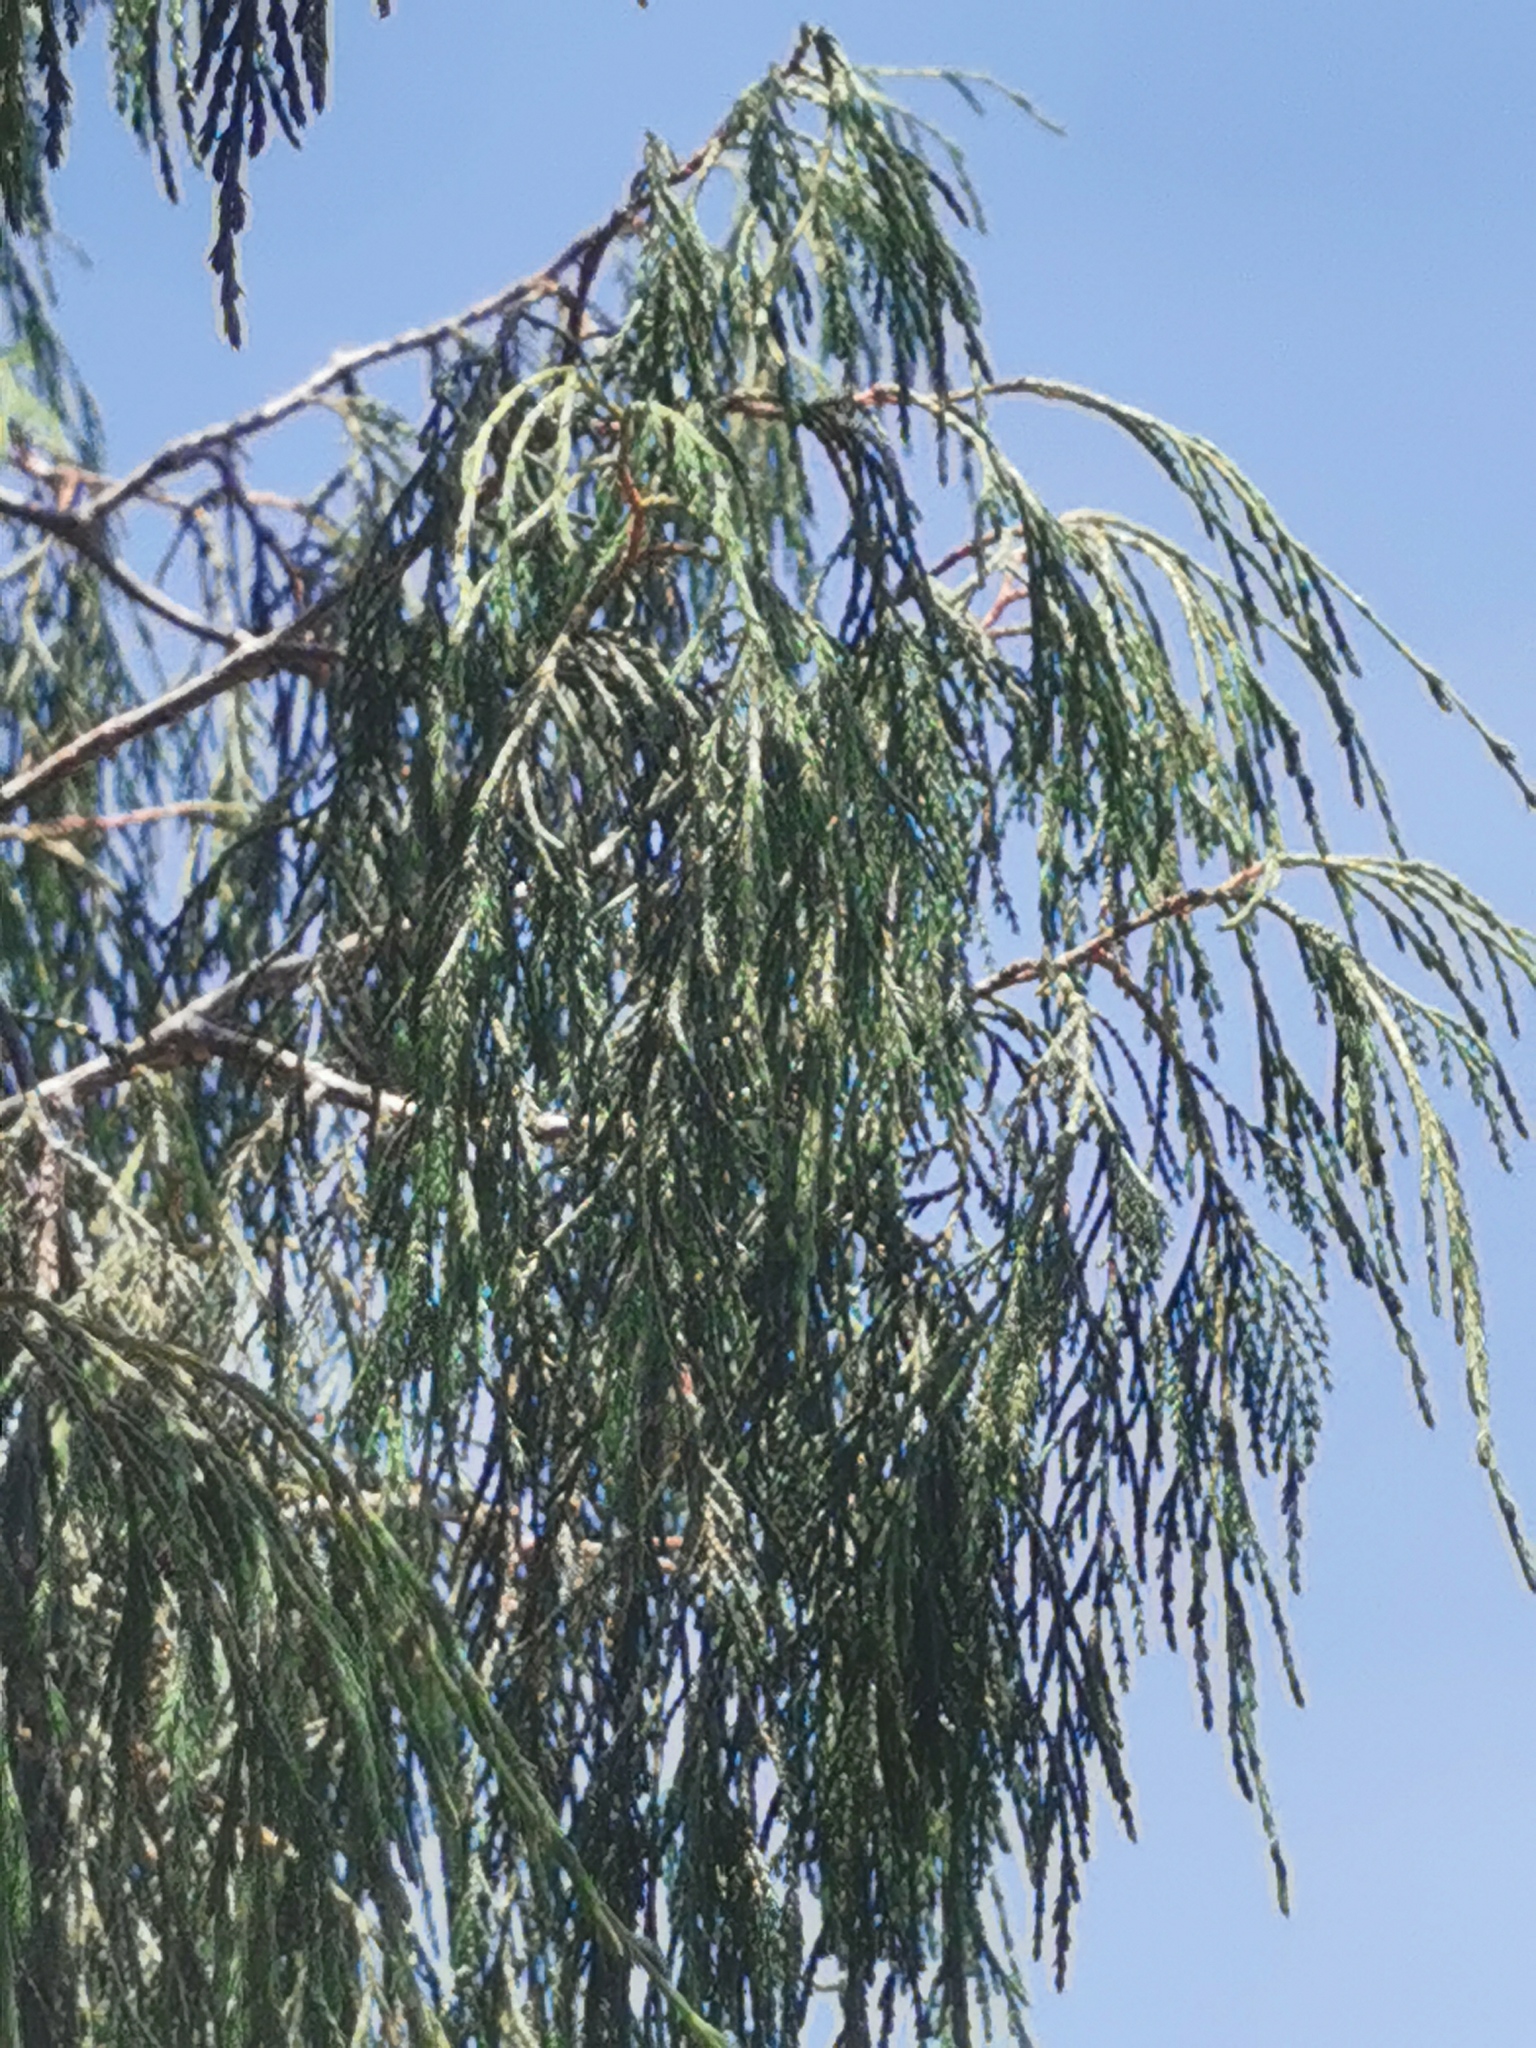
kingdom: Plantae
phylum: Tracheophyta
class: Pinopsida
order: Pinales
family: Cupressaceae
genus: Juniperus
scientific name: Juniperus flaccida
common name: Drooping juniper
